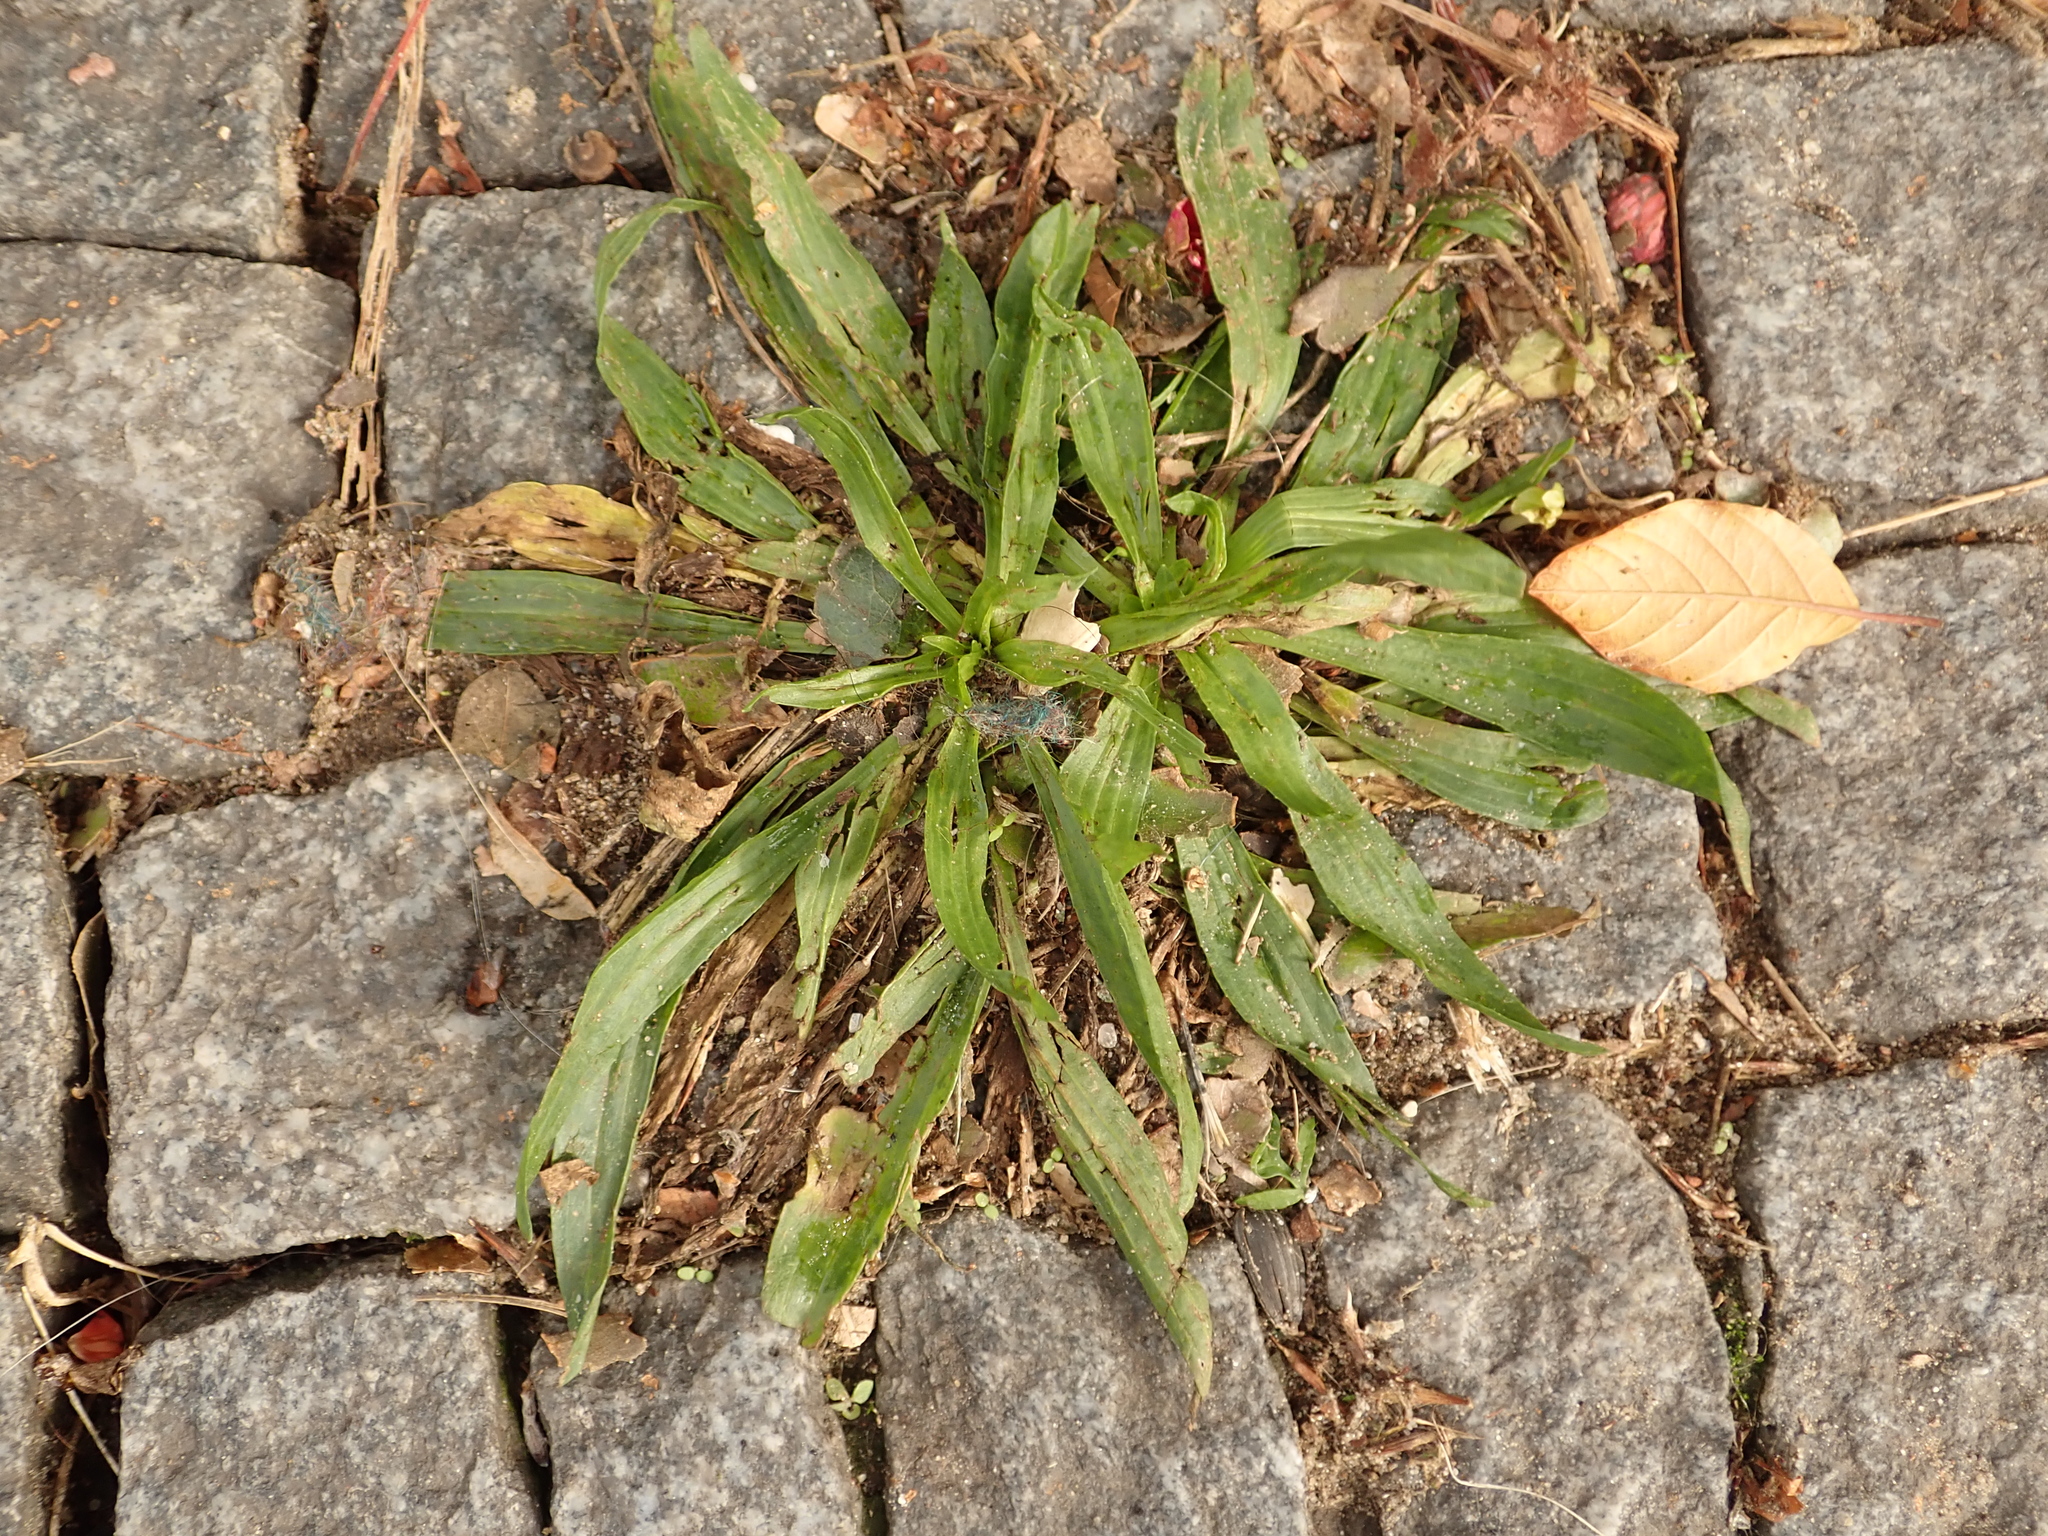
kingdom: Plantae
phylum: Tracheophyta
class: Magnoliopsida
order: Lamiales
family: Plantaginaceae
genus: Plantago
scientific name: Plantago lanceolata
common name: Ribwort plantain
